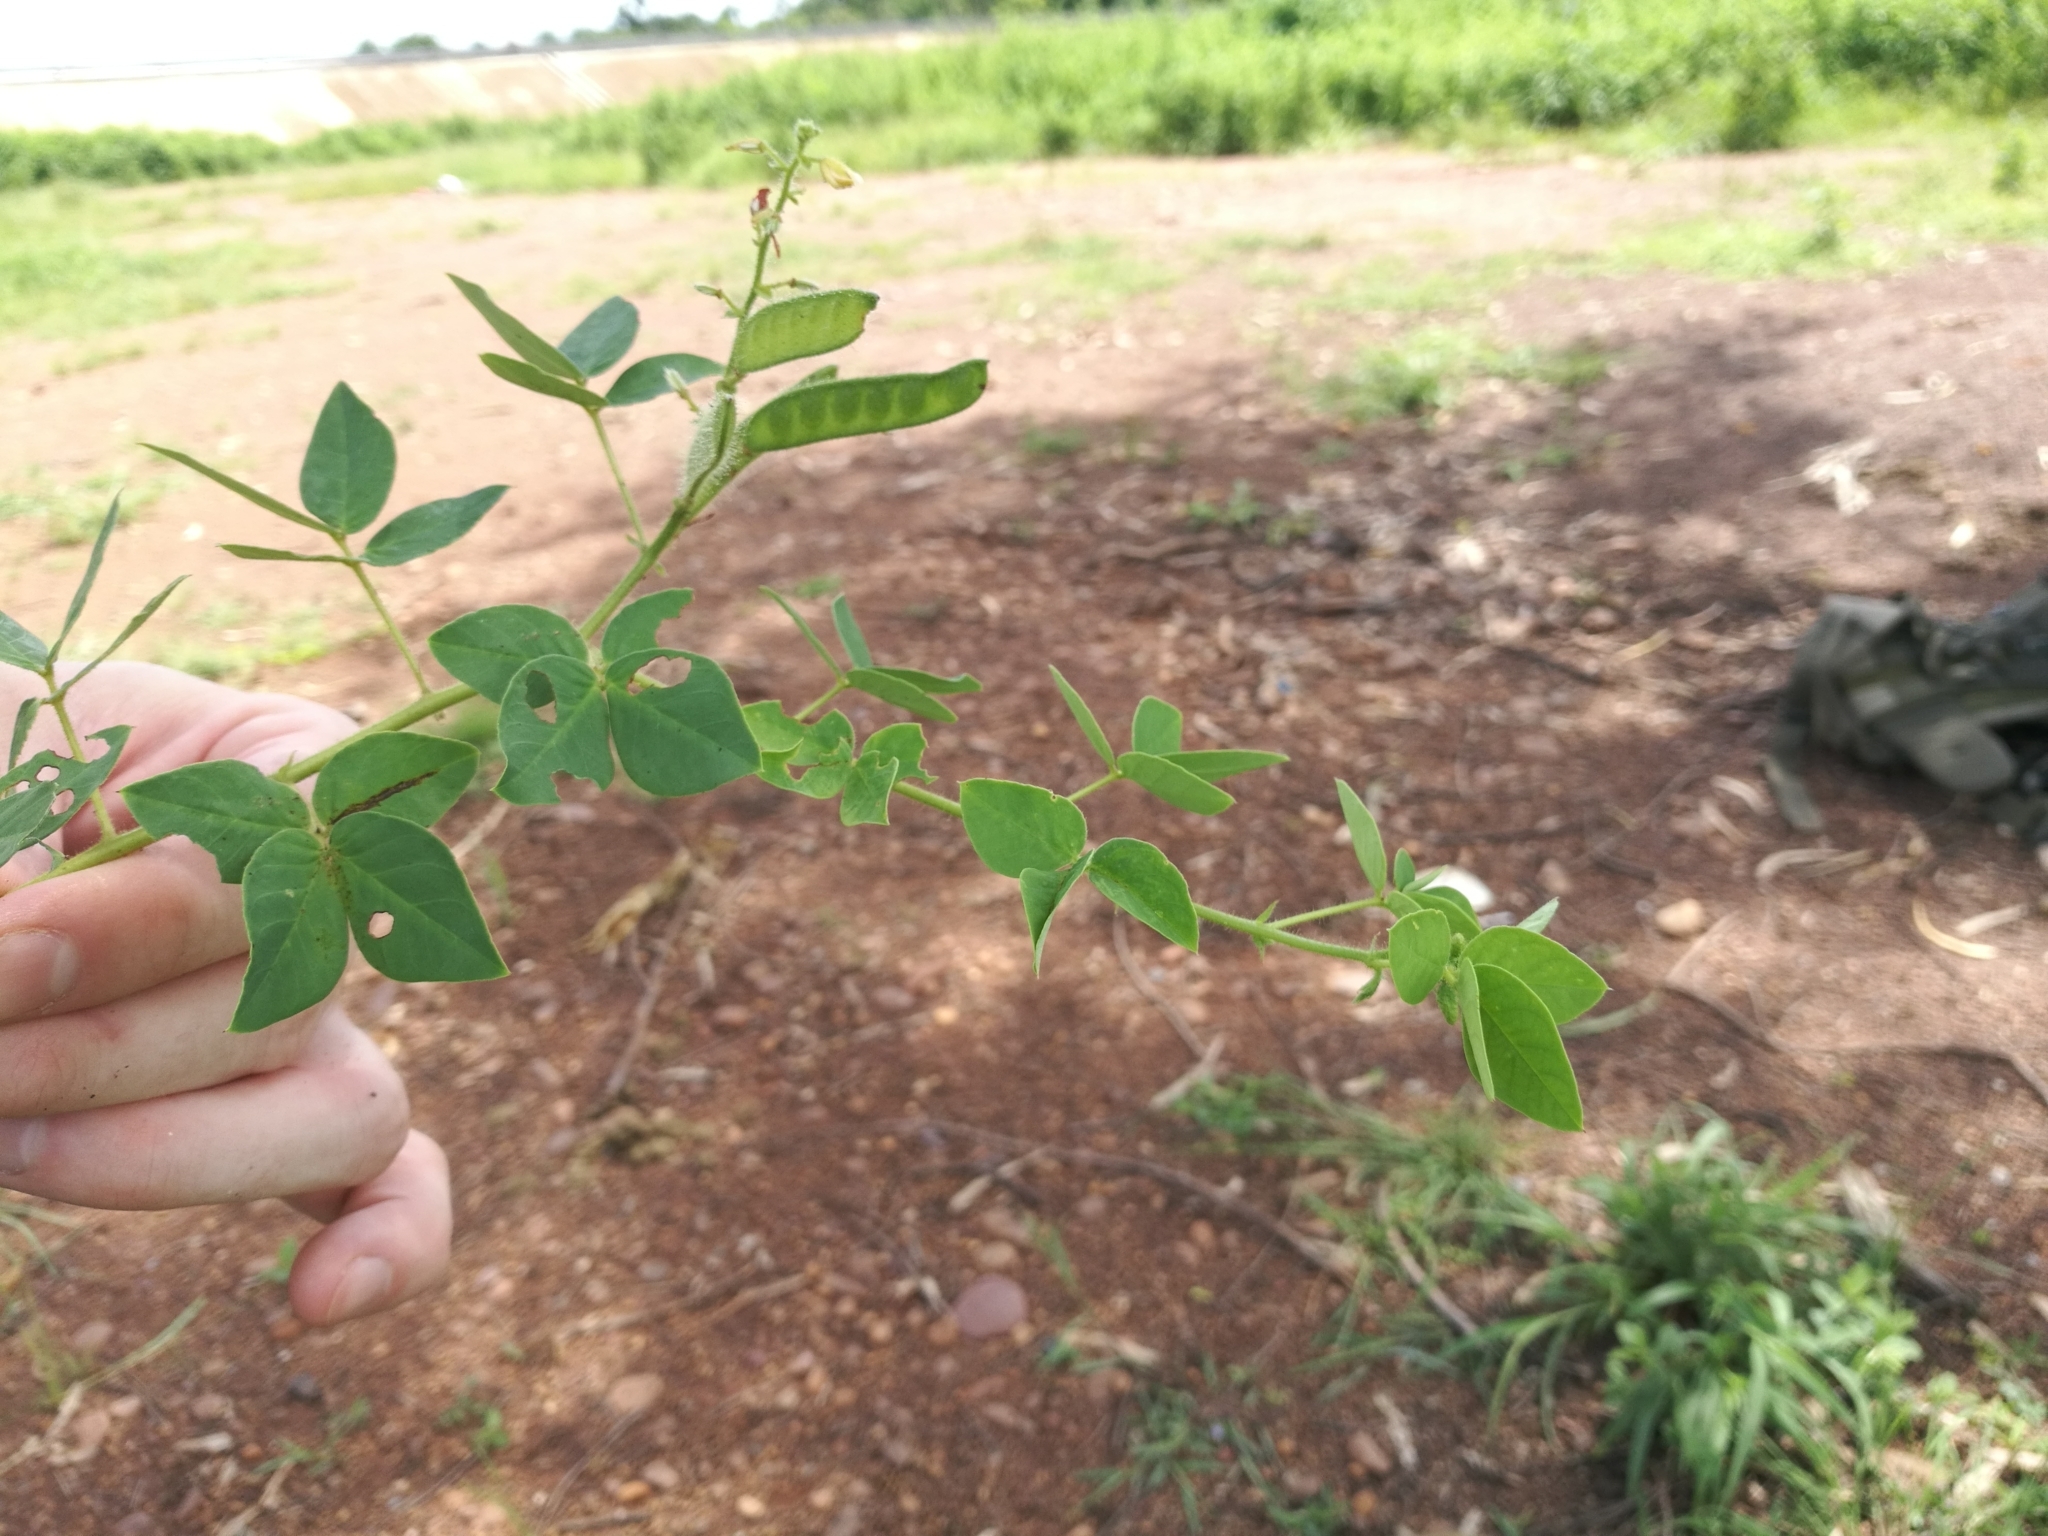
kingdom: Plantae
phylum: Tracheophyta
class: Magnoliopsida
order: Fabales
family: Fabaceae
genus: Chamaecrista
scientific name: Chamaecrista absus
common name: Tropical sensitive pea
